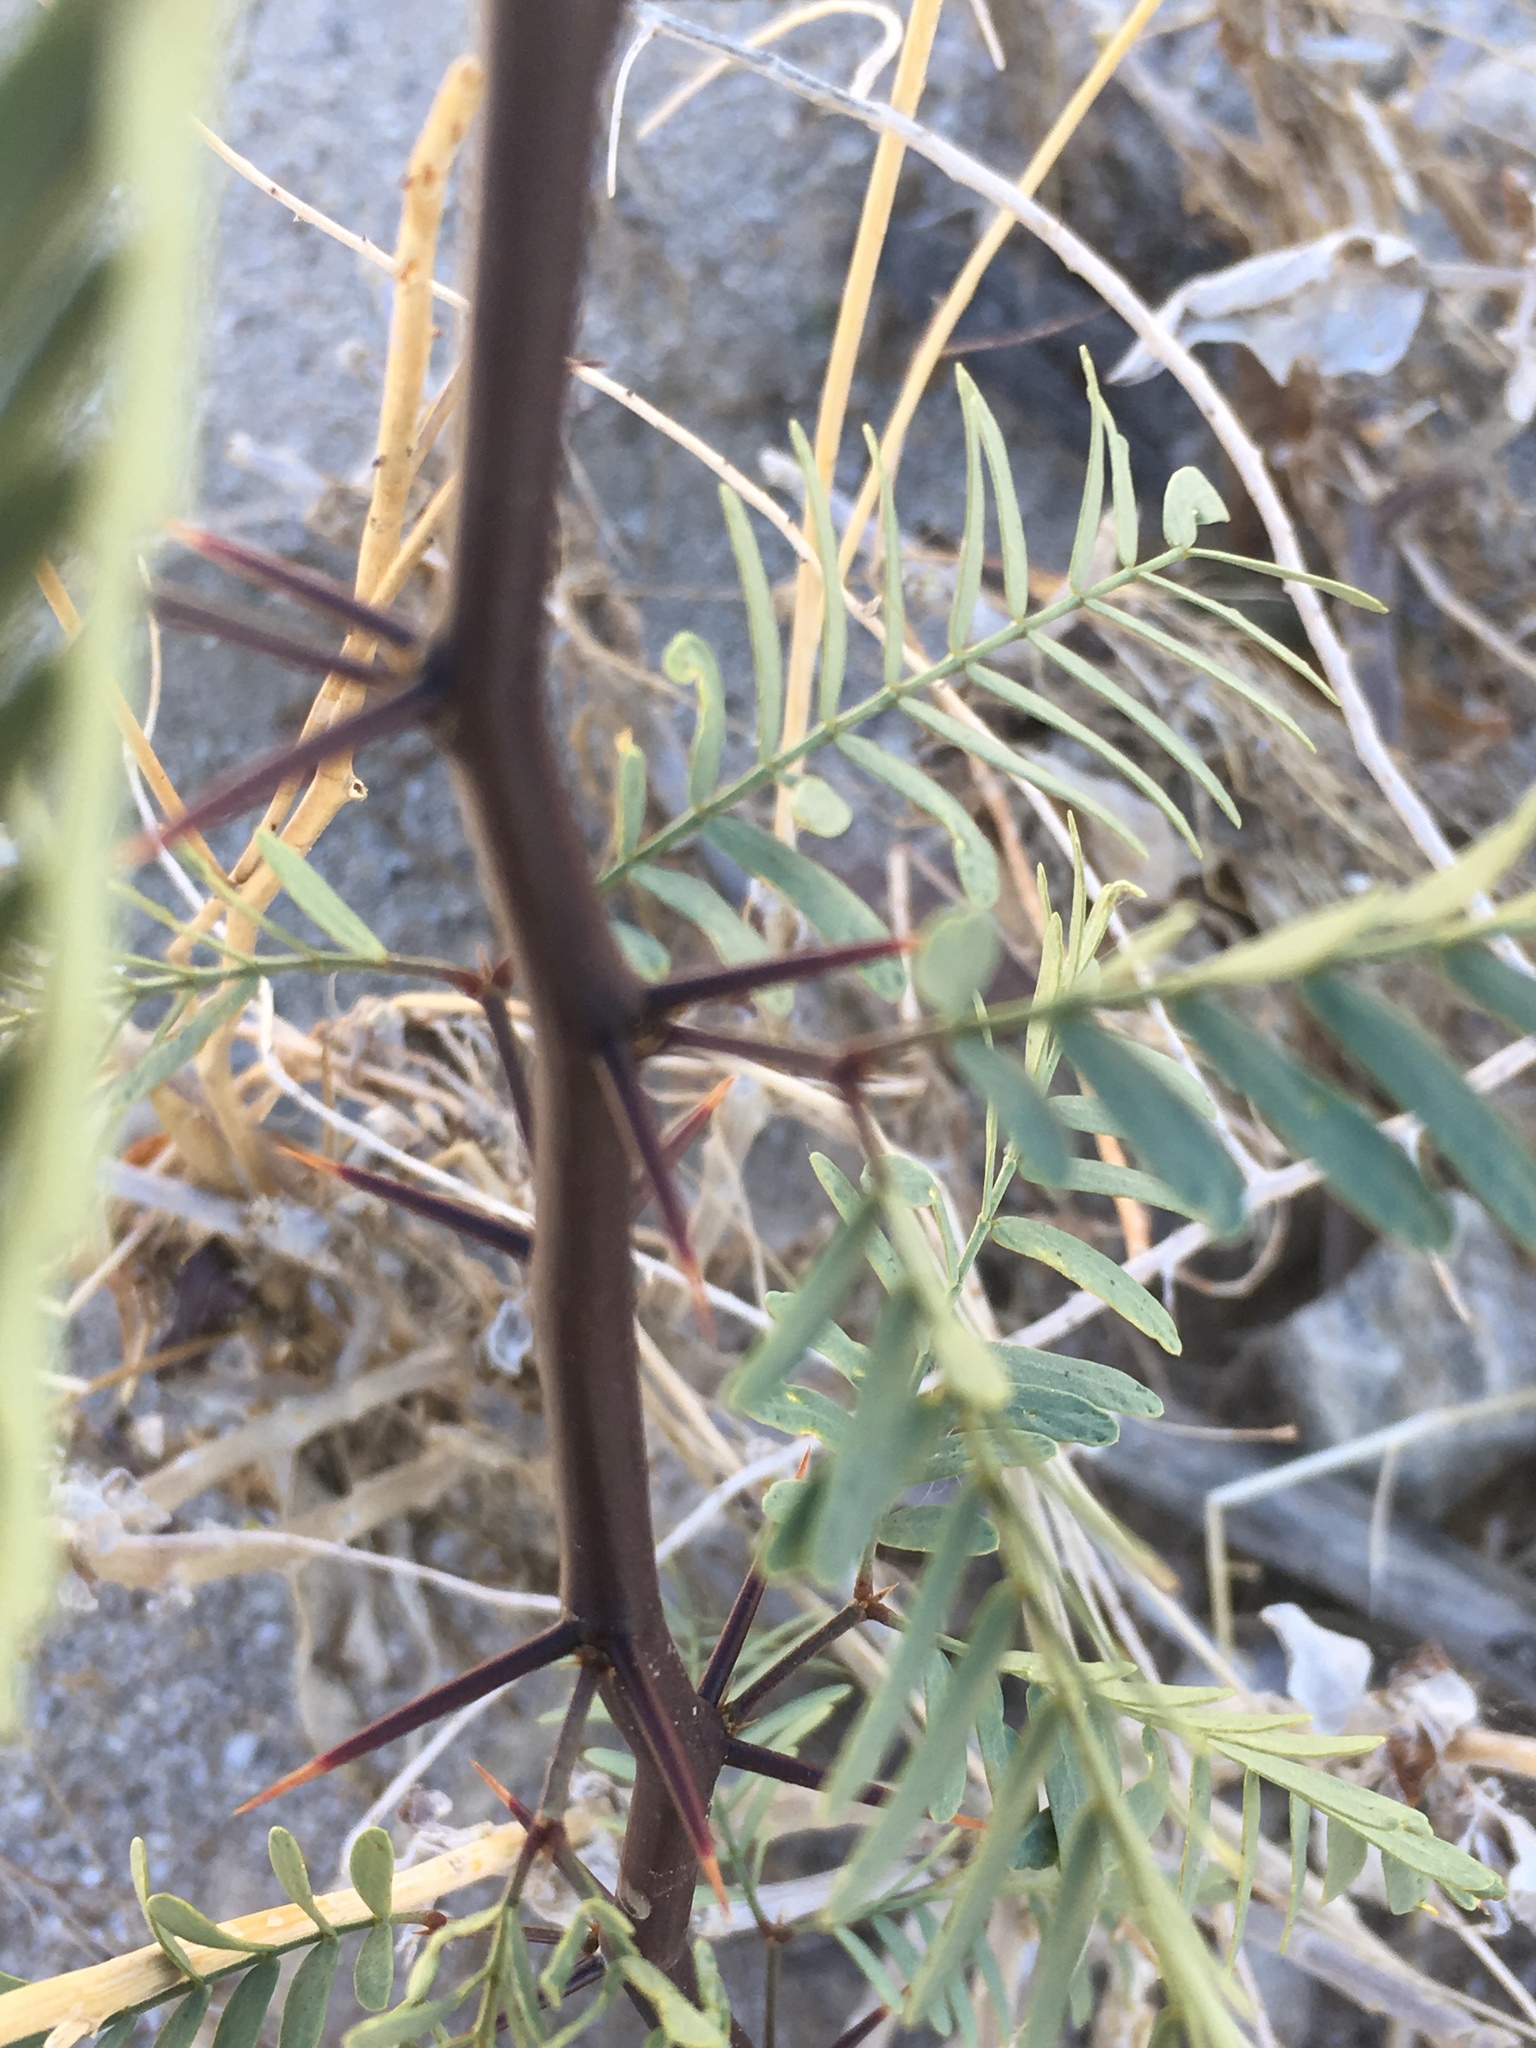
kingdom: Plantae
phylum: Tracheophyta
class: Magnoliopsida
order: Fabales
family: Fabaceae
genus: Prosopis
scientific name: Prosopis pubescens
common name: Screw-bean
